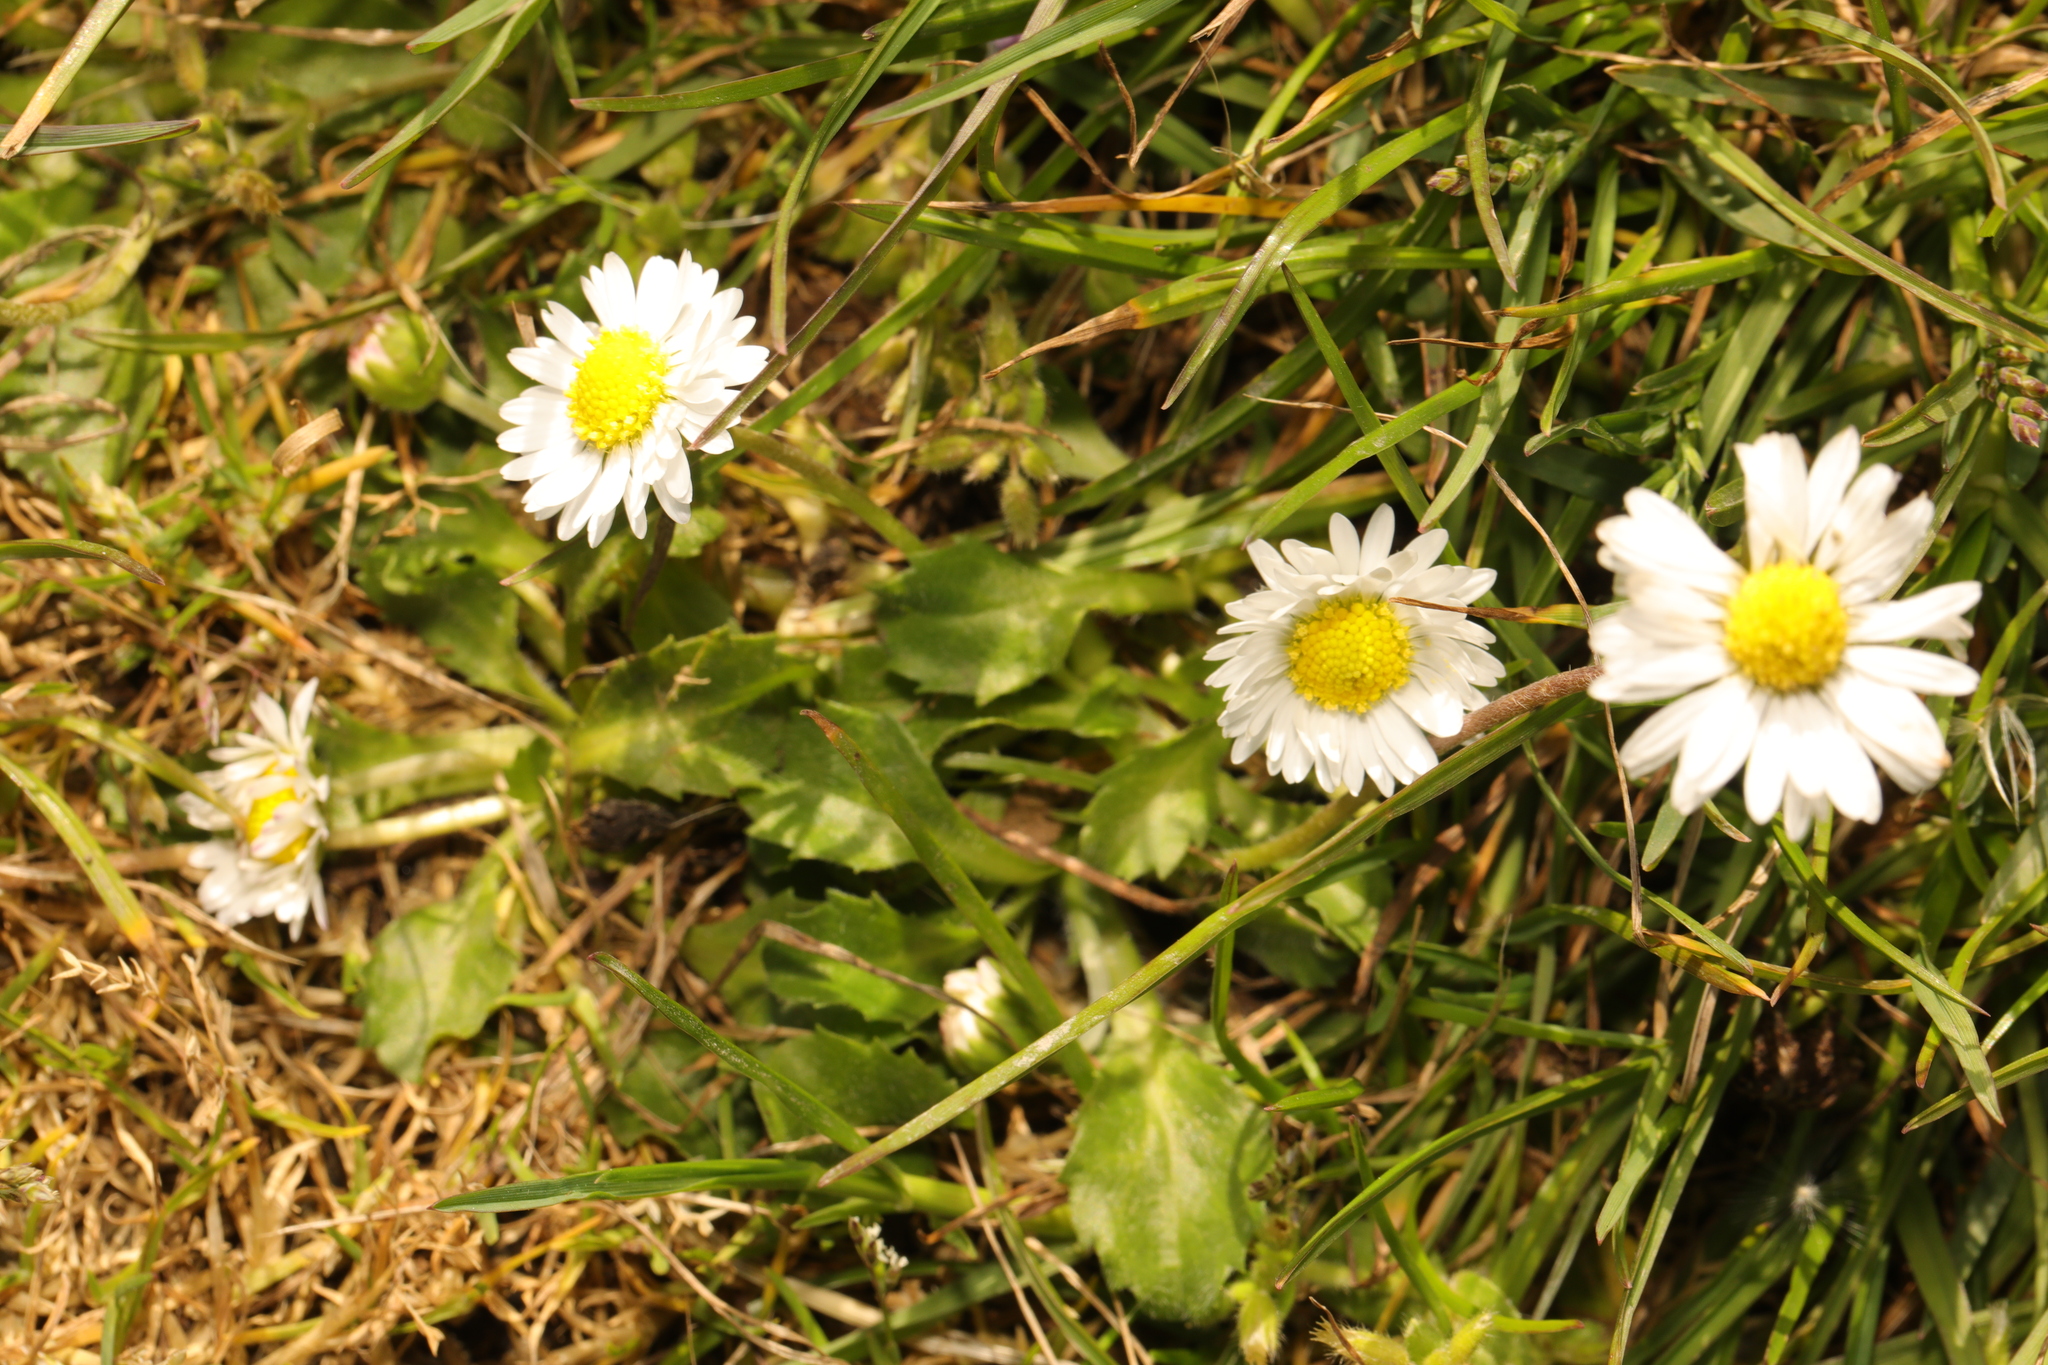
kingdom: Plantae
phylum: Tracheophyta
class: Magnoliopsida
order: Asterales
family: Asteraceae
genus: Bellis
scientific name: Bellis perennis
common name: Lawndaisy
